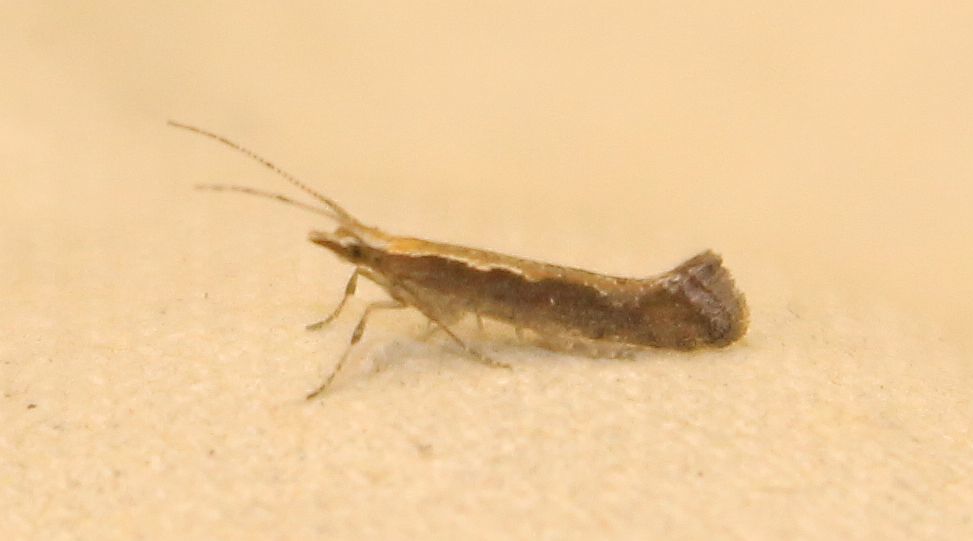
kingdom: Animalia
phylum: Arthropoda
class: Insecta
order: Lepidoptera
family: Plutellidae
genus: Plutella
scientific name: Plutella xylostella
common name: Diamond-back moth
